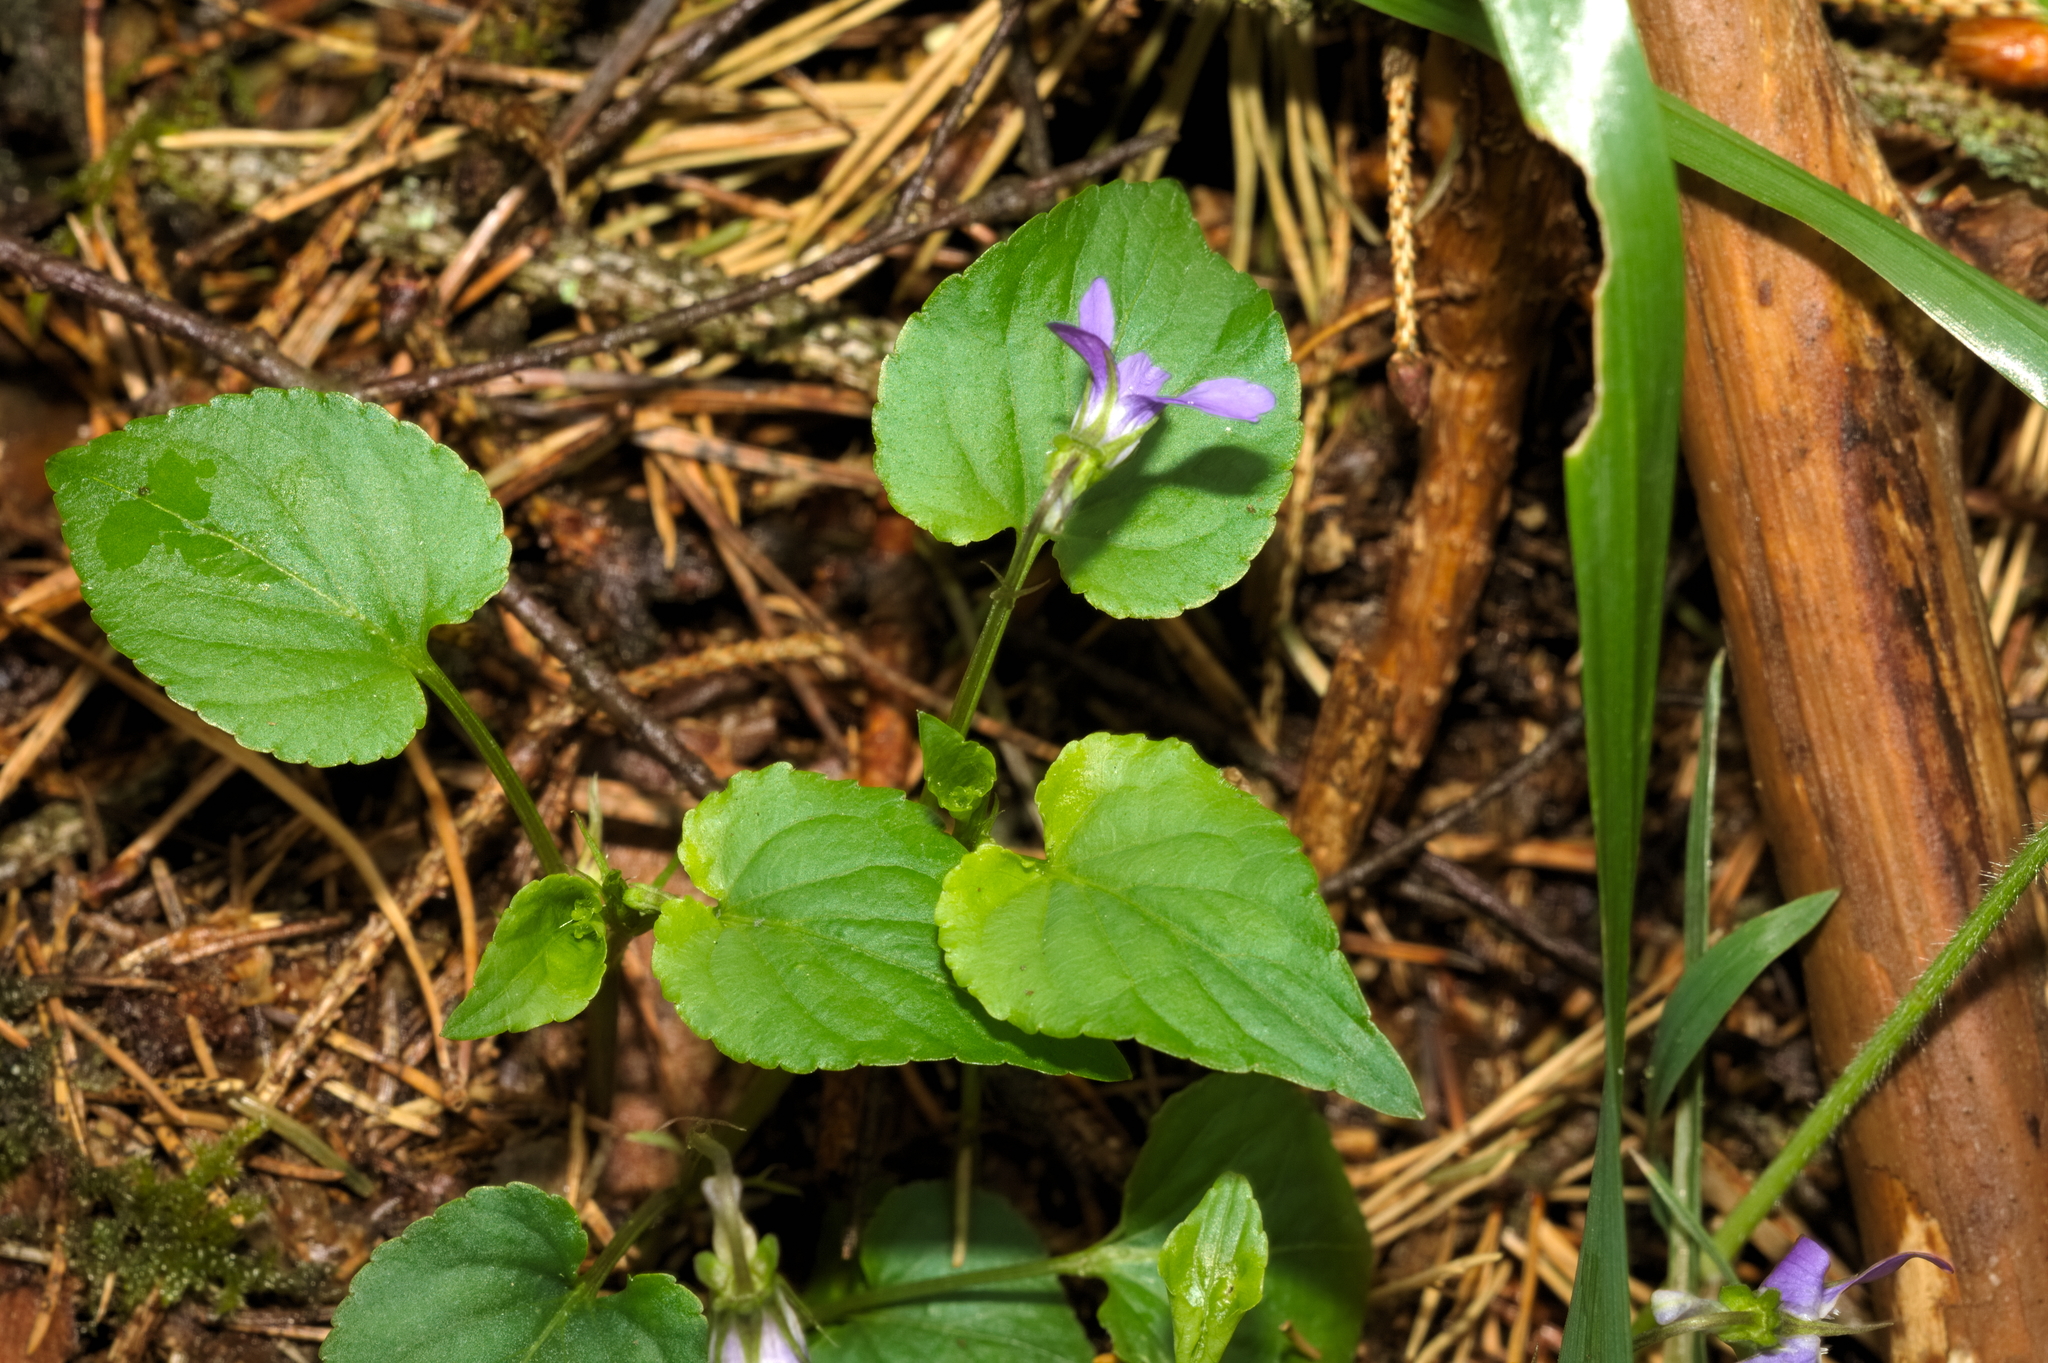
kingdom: Plantae
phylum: Tracheophyta
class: Magnoliopsida
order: Malpighiales
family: Violaceae
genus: Viola
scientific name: Viola riviniana
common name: Common dog-violet
